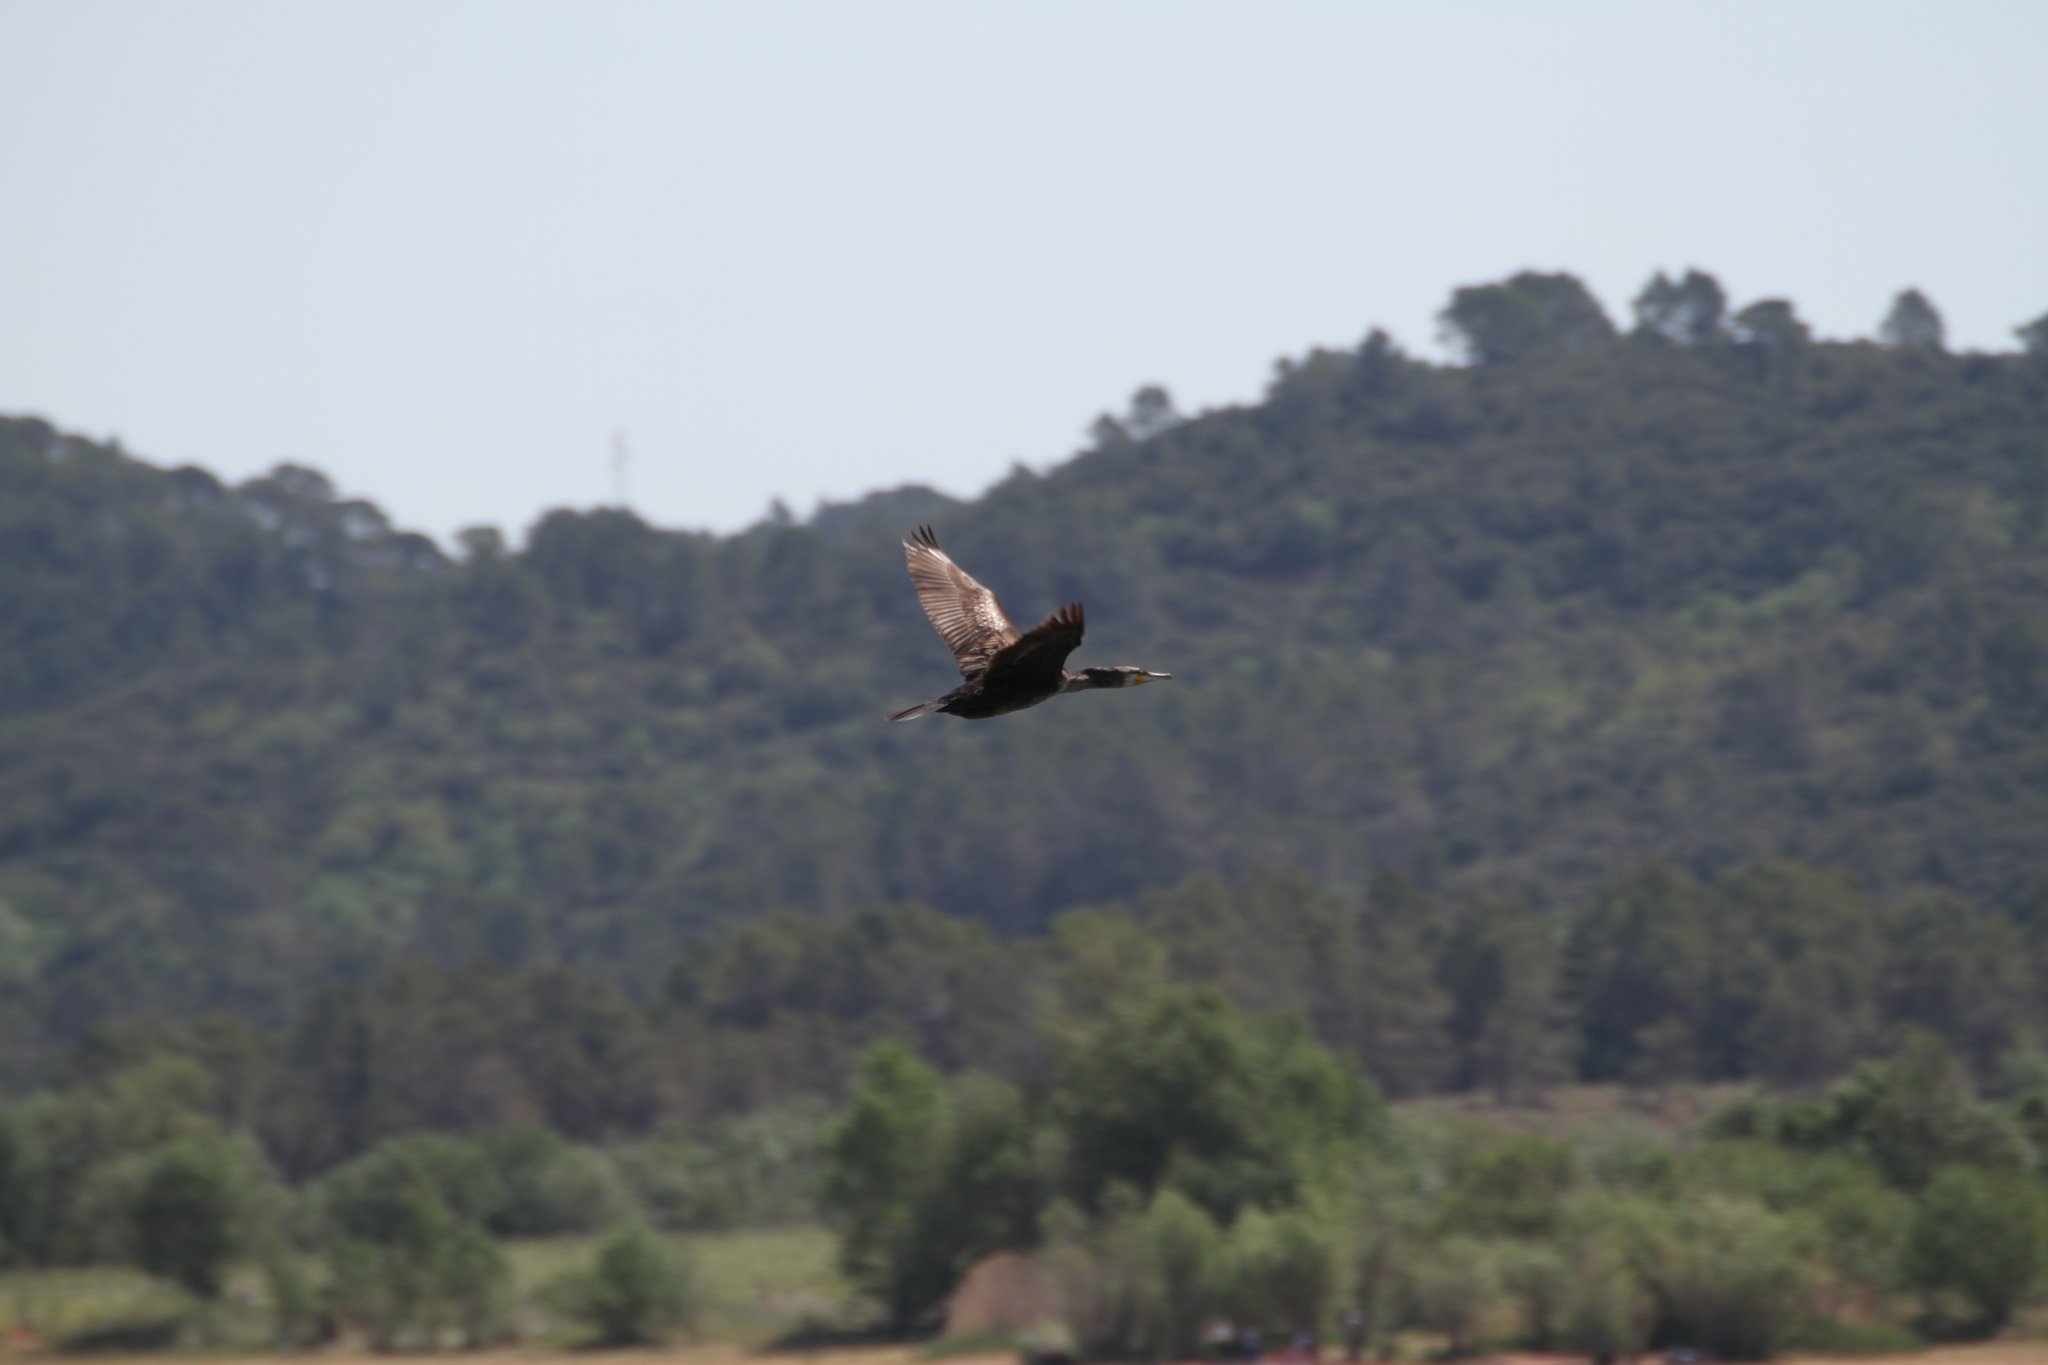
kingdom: Animalia
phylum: Chordata
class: Aves
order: Suliformes
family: Phalacrocoracidae
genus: Phalacrocorax
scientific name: Phalacrocorax carbo
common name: Great cormorant
